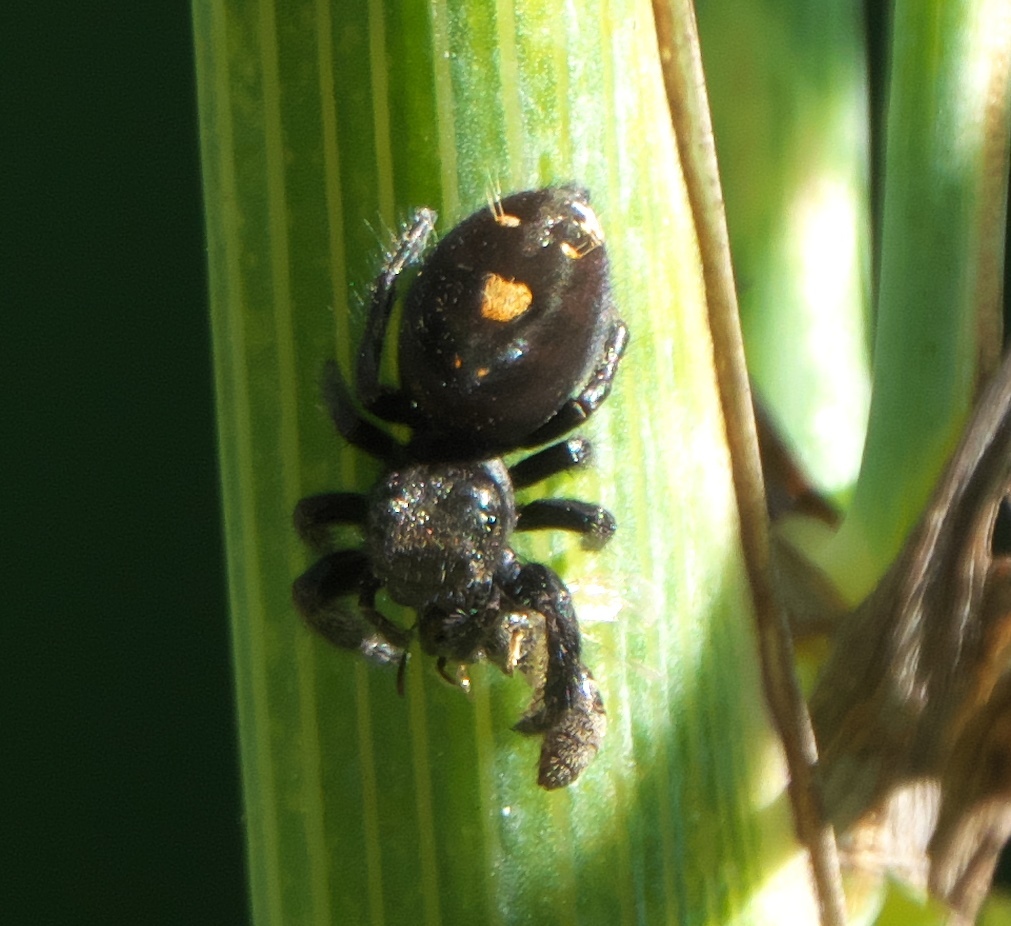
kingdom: Animalia
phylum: Arthropoda
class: Arachnida
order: Araneae
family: Salticidae
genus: Phidippus
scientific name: Phidippus audax
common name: Bold jumper
